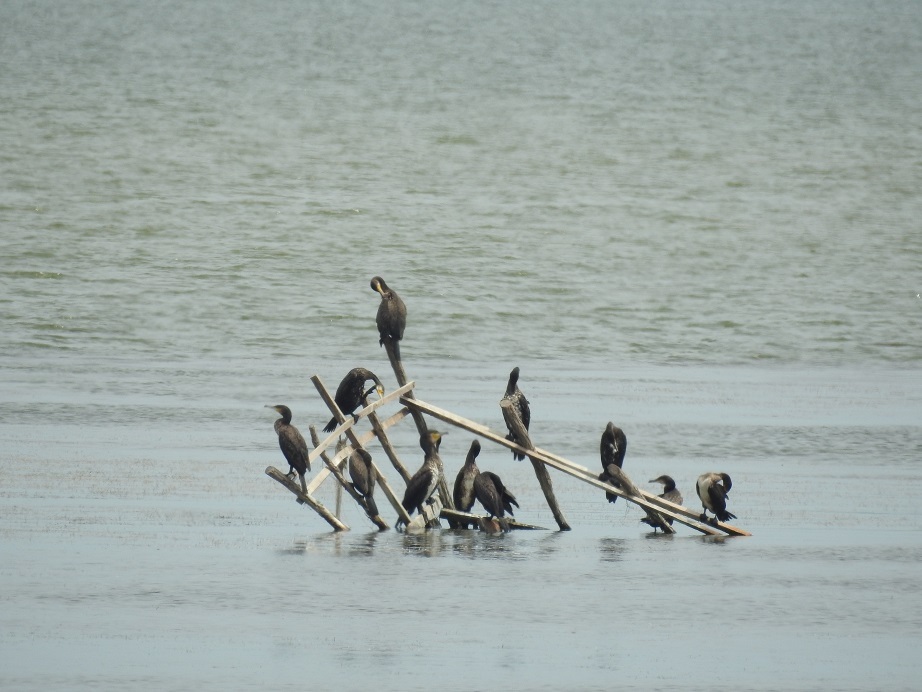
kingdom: Animalia
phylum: Chordata
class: Aves
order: Suliformes
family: Phalacrocoracidae
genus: Phalacrocorax
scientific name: Phalacrocorax carbo
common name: Great cormorant
